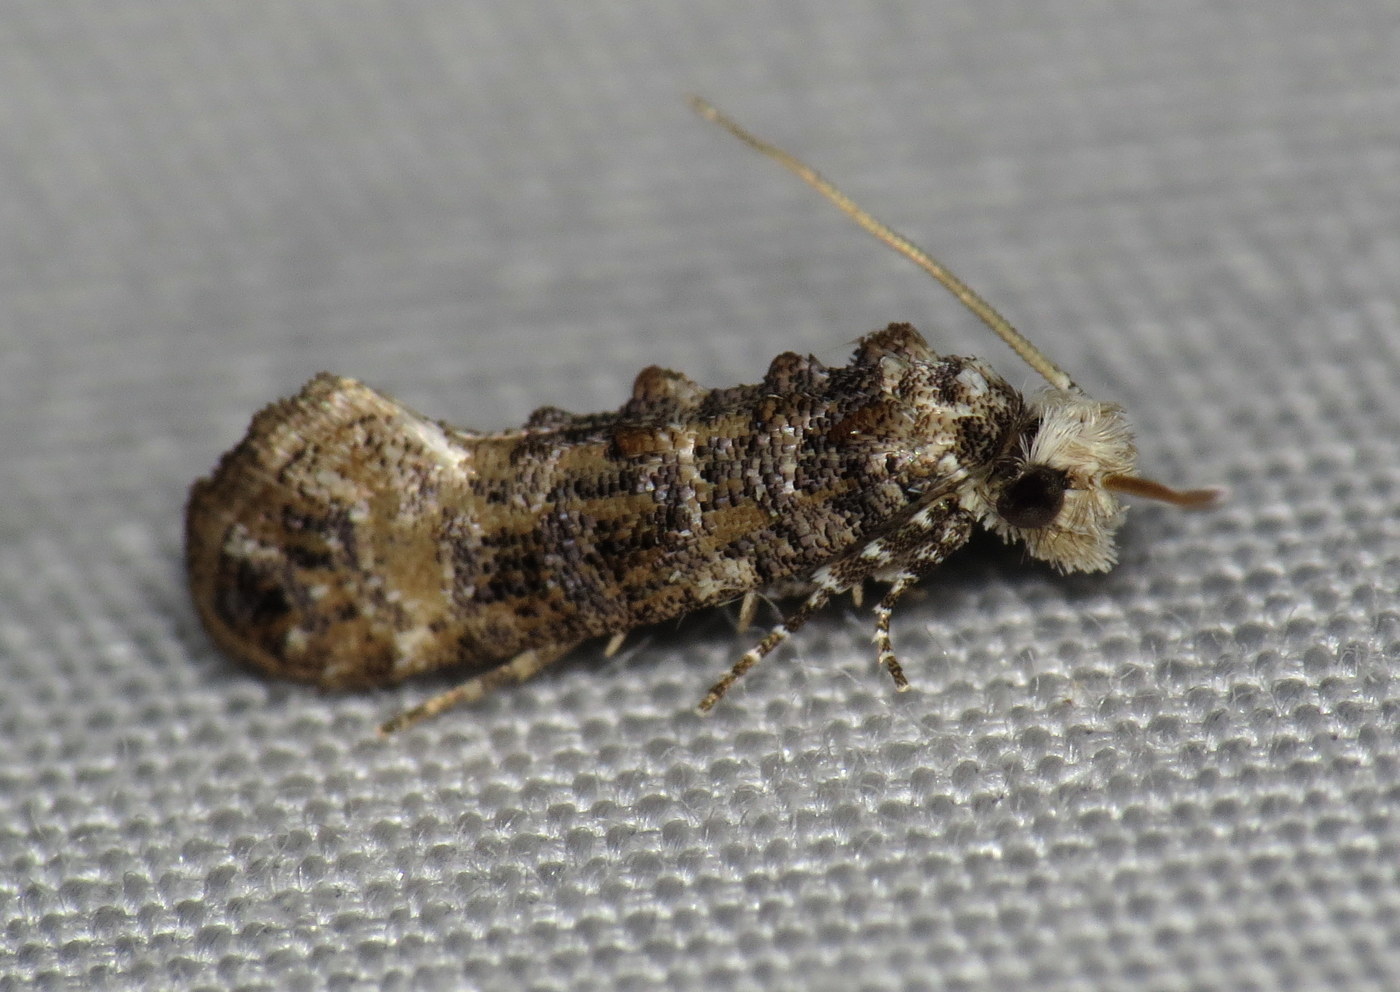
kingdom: Animalia
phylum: Arthropoda
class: Insecta
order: Lepidoptera
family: Tineidae
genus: Xylesthia
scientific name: Xylesthia pruniramiella
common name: Clemens' bark moth
